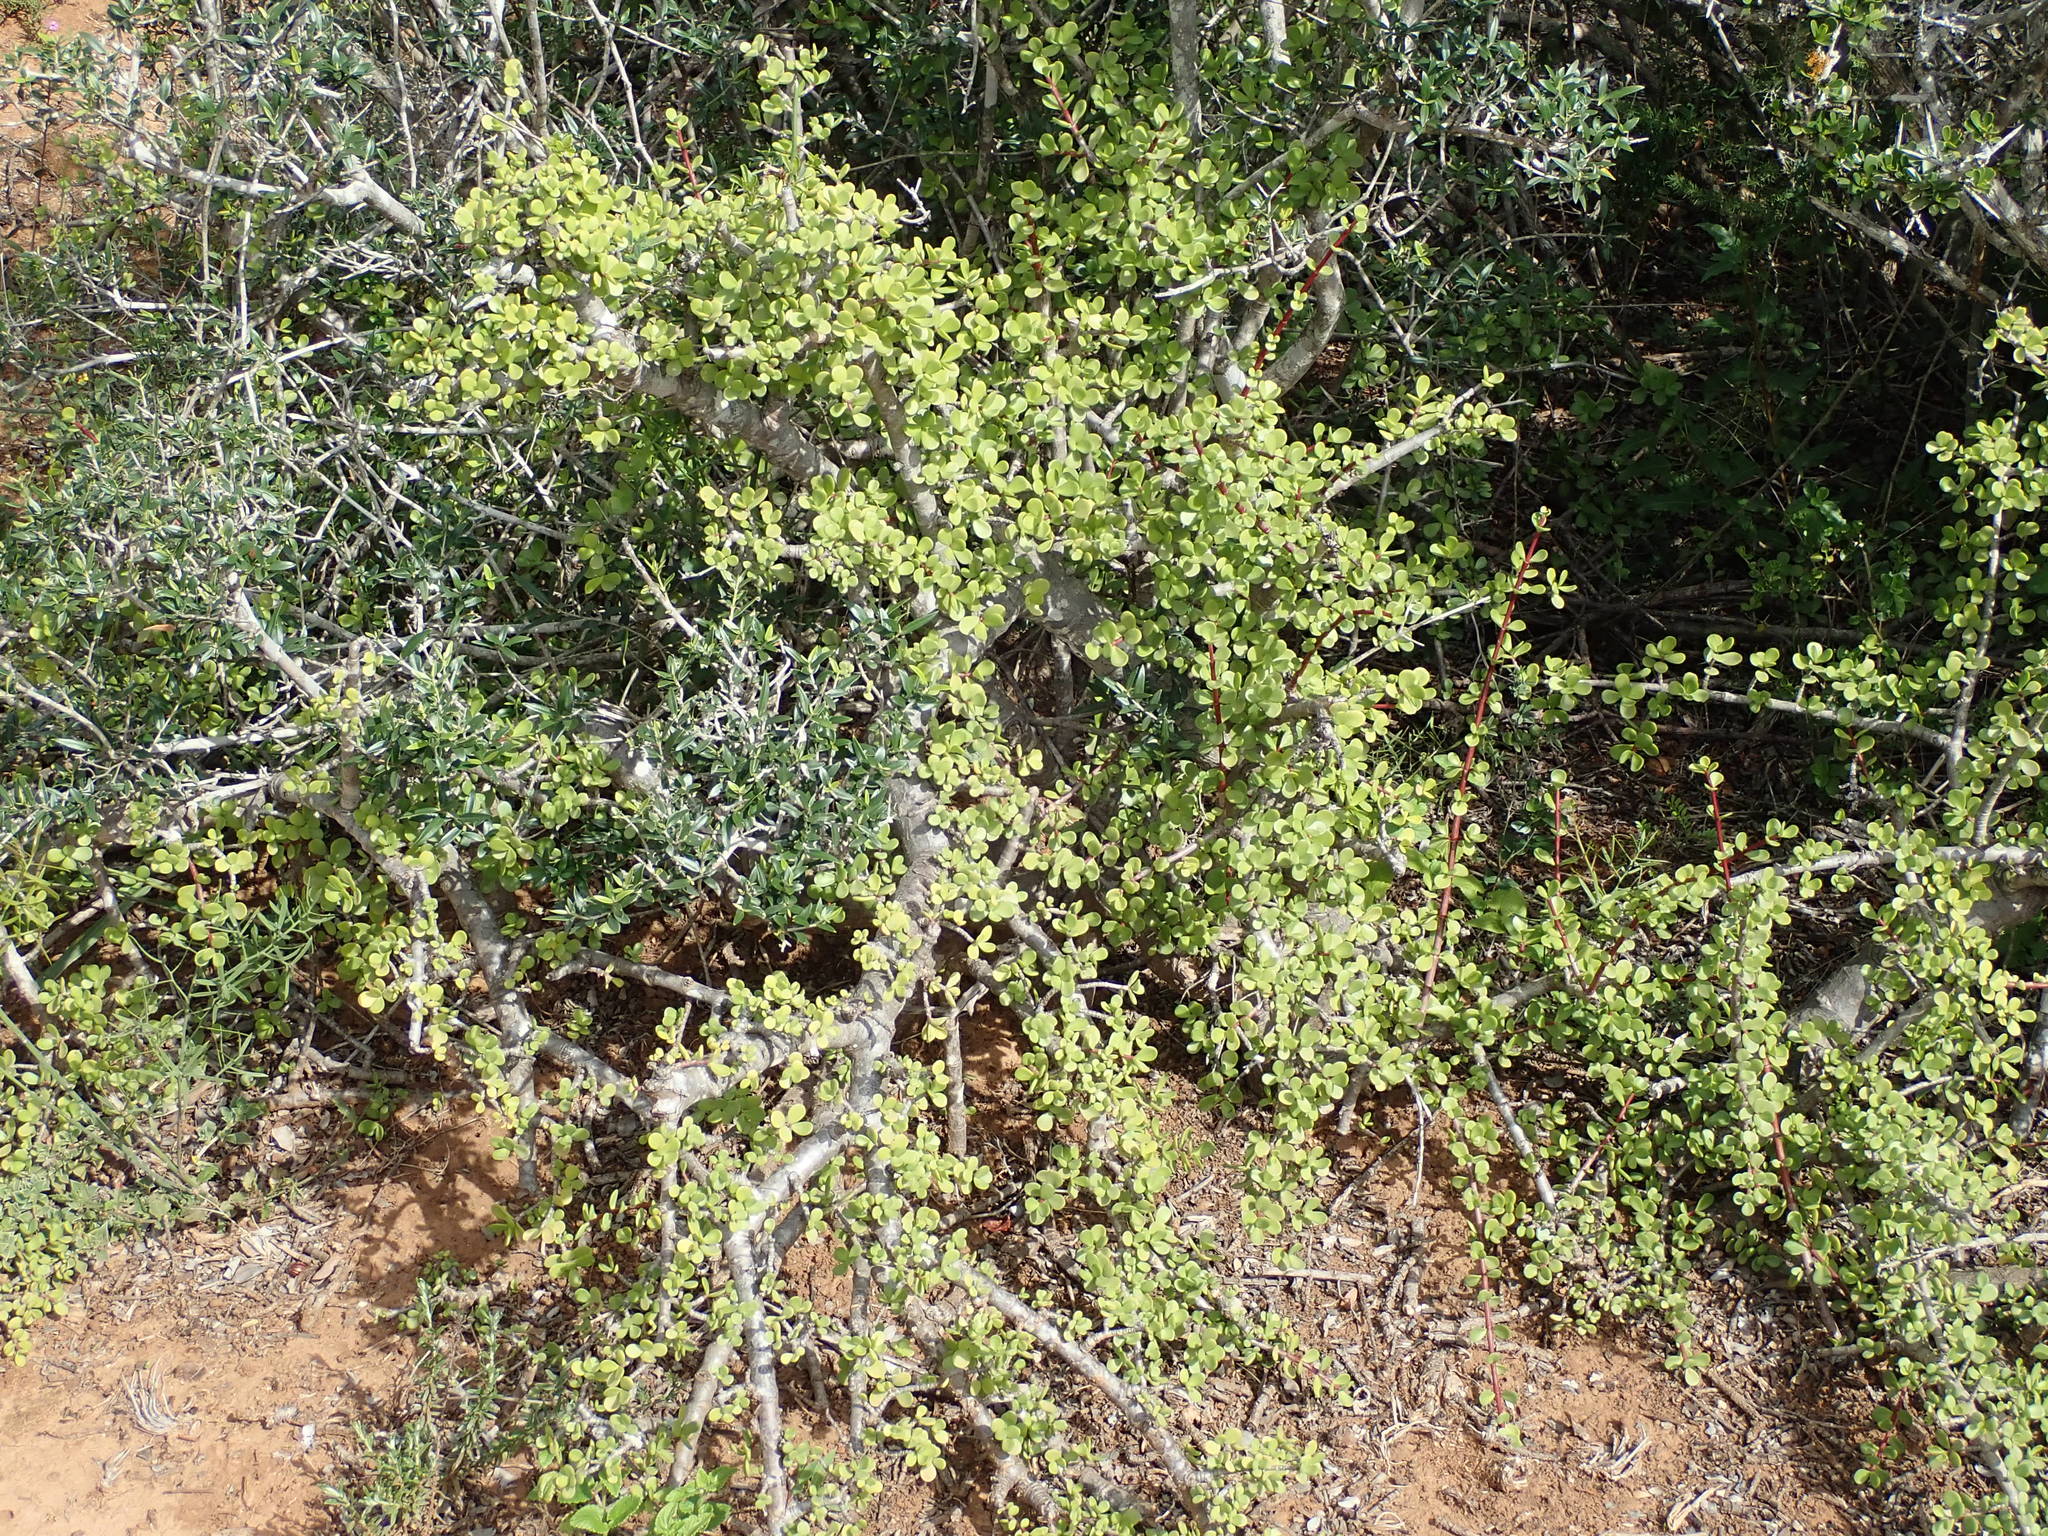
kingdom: Plantae
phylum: Tracheophyta
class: Magnoliopsida
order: Caryophyllales
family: Didiereaceae
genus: Portulacaria
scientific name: Portulacaria afra
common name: Elephant-bush
